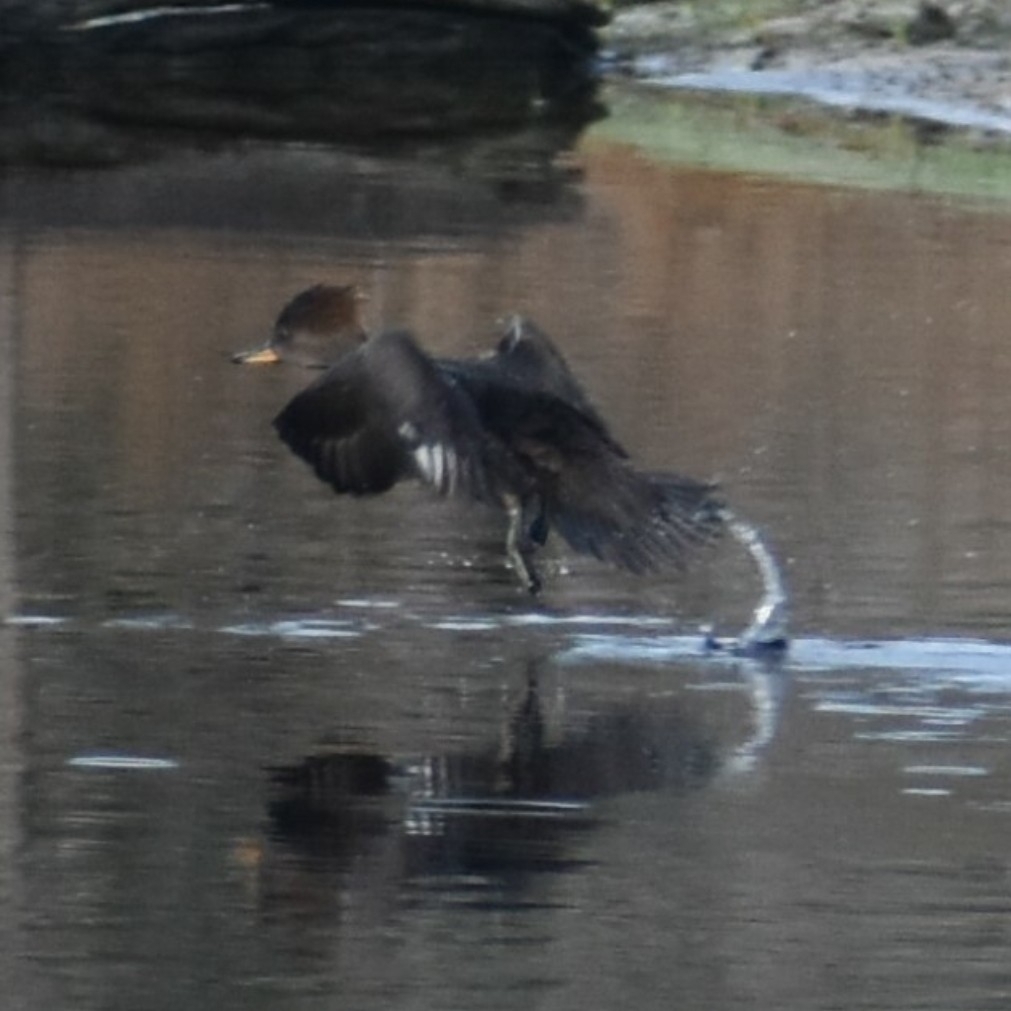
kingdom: Animalia
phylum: Chordata
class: Aves
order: Anseriformes
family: Anatidae
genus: Lophodytes
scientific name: Lophodytes cucullatus
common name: Hooded merganser
